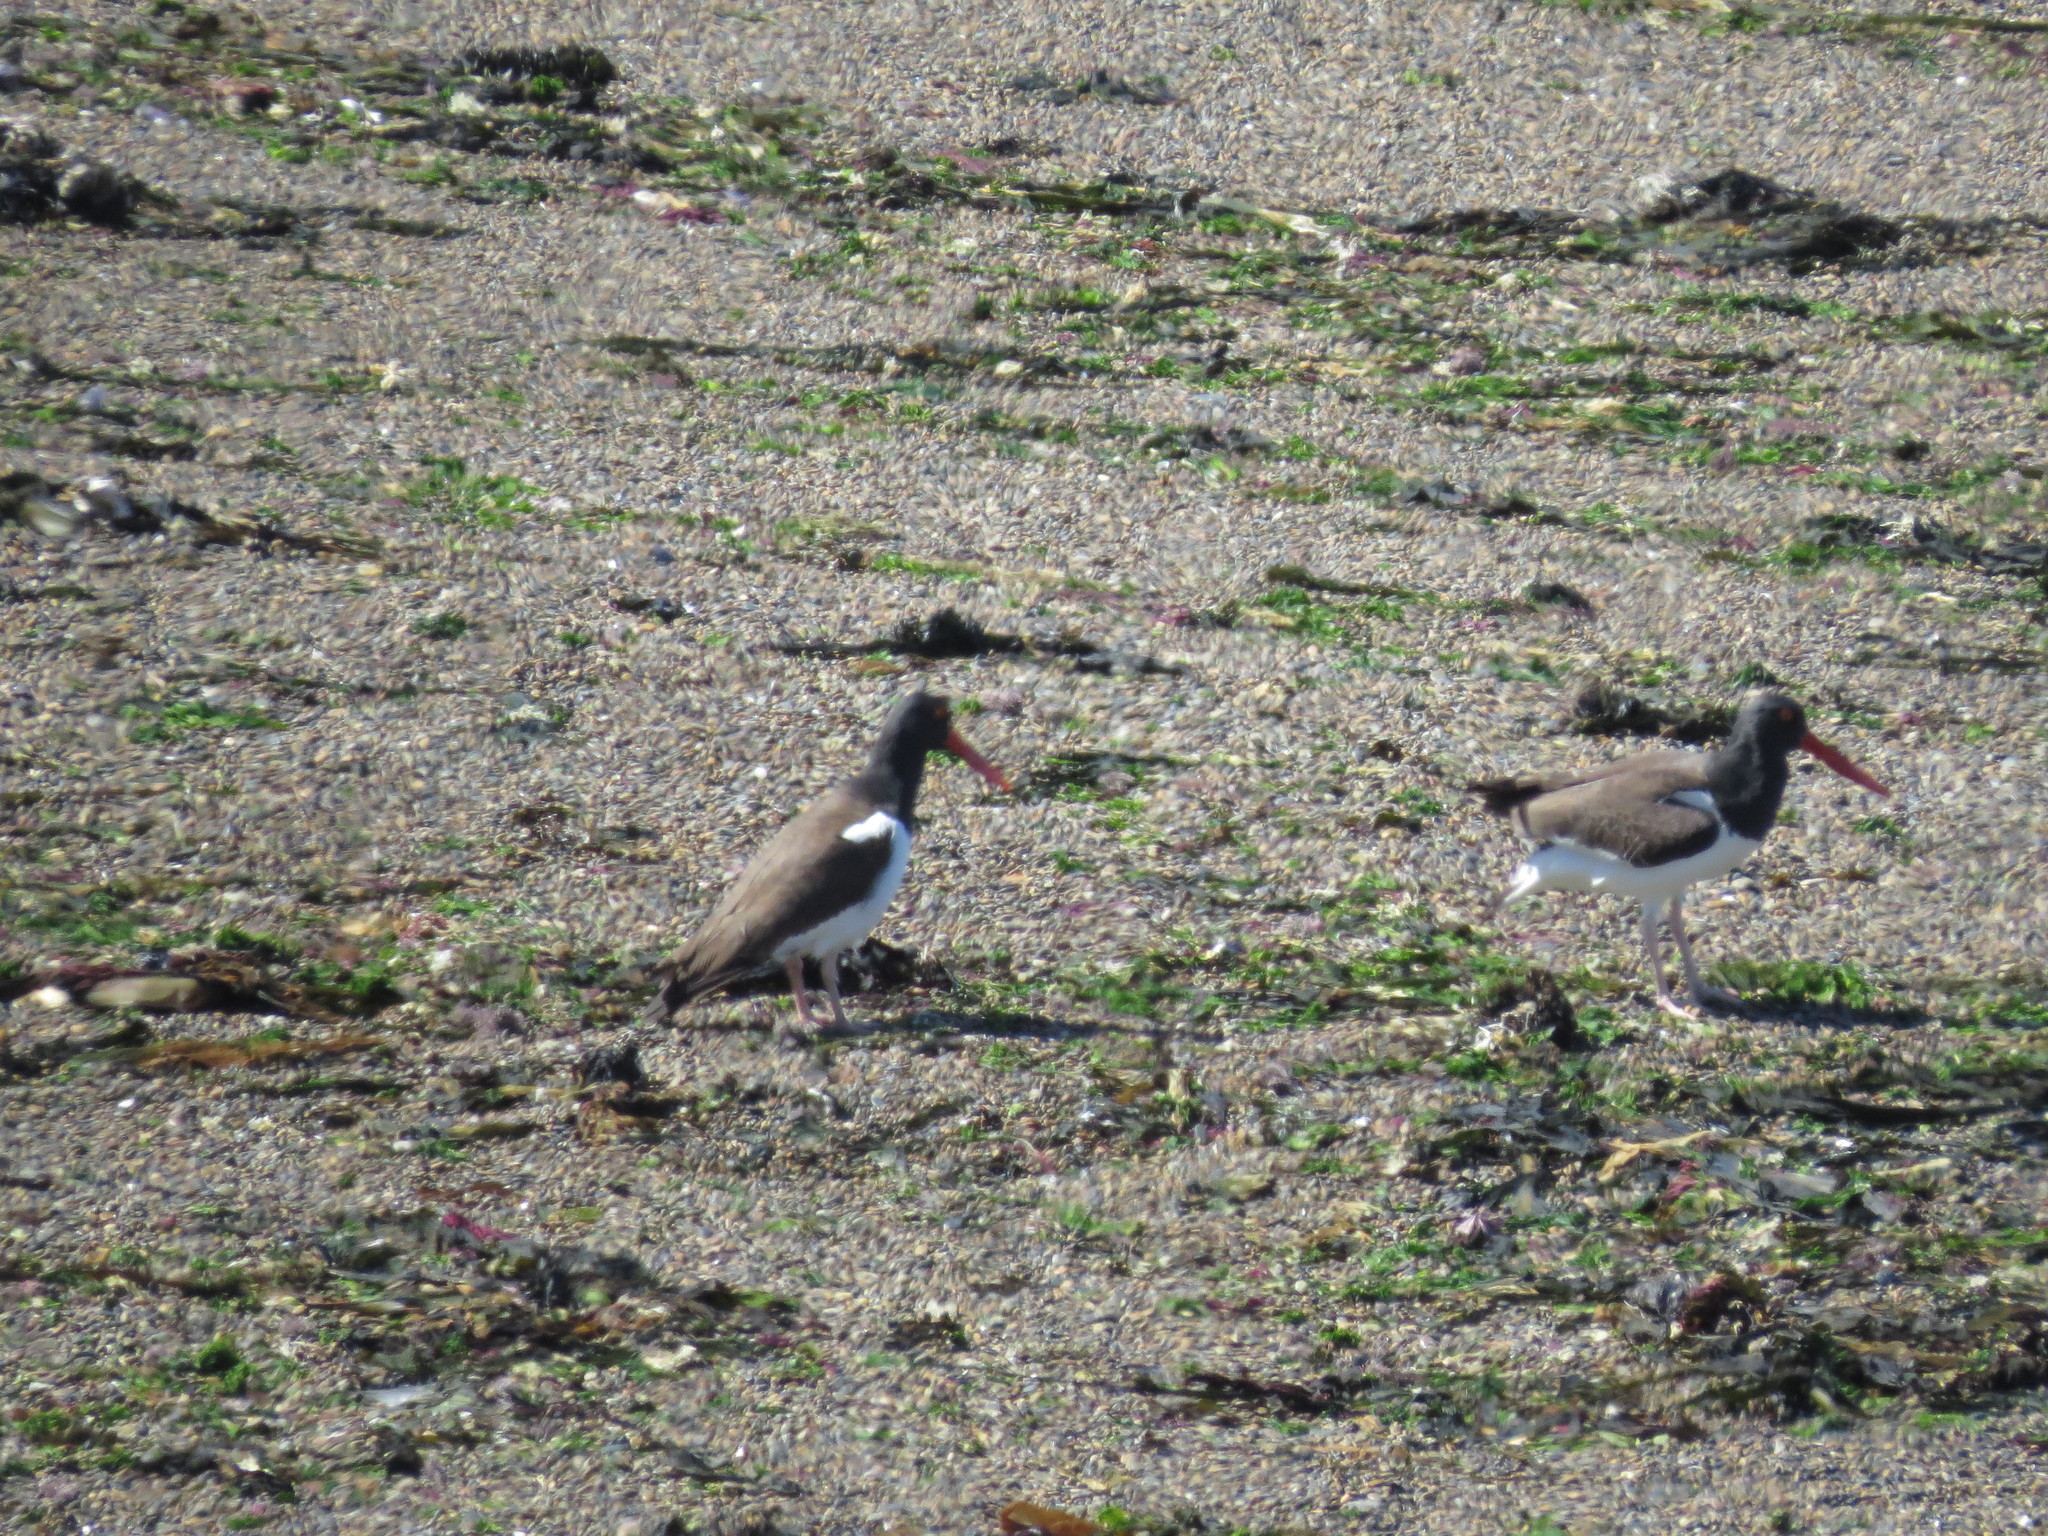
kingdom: Animalia
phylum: Chordata
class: Aves
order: Charadriiformes
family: Haematopodidae
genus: Haematopus
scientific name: Haematopus palliatus
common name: American oystercatcher
